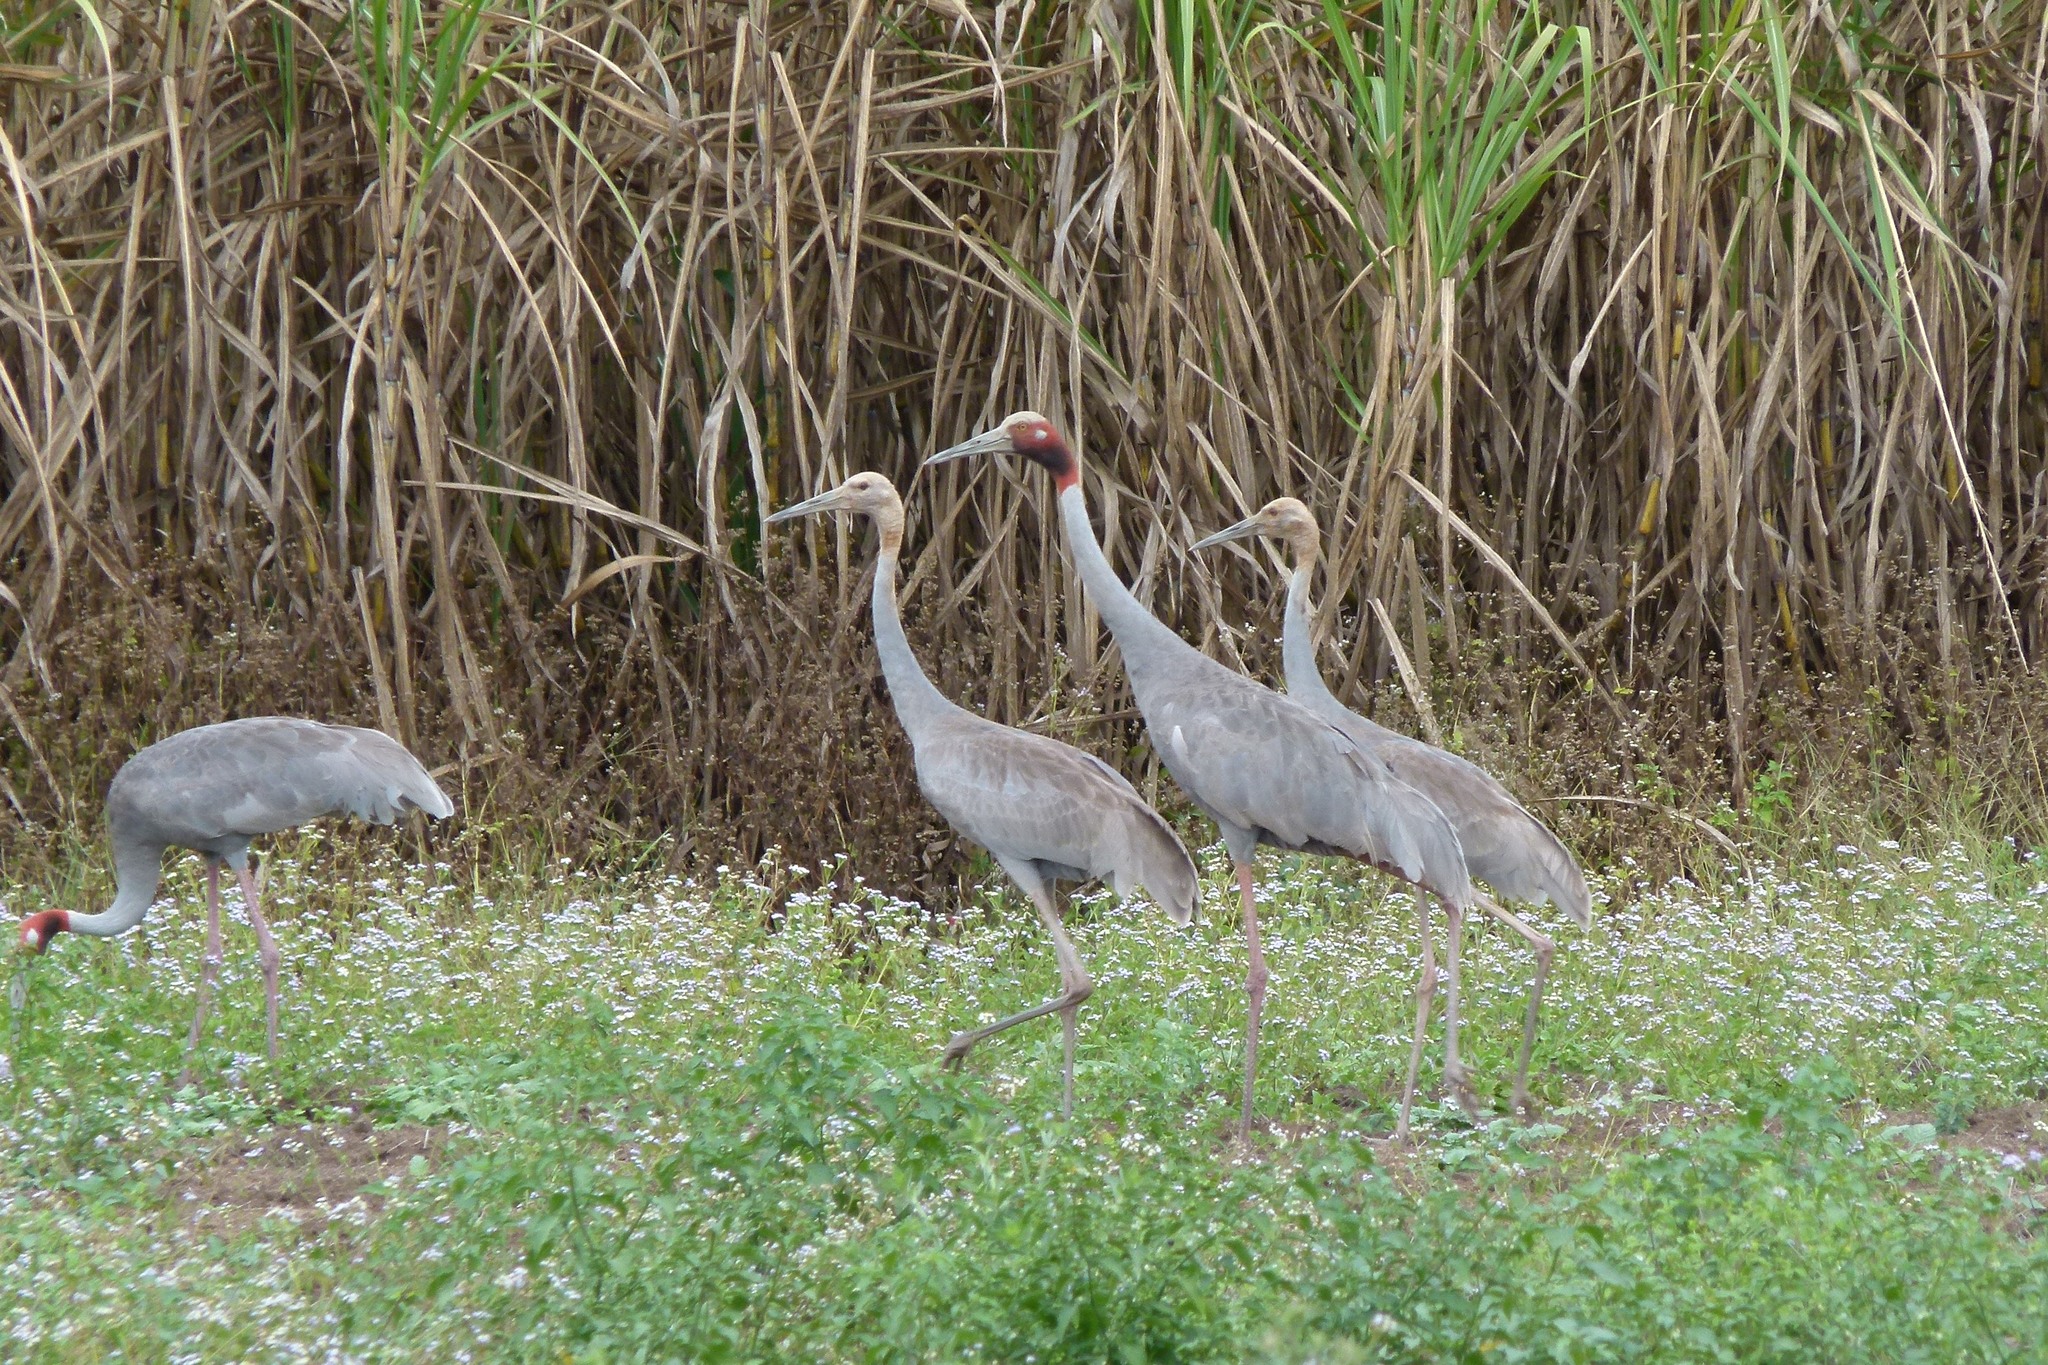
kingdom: Animalia
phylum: Chordata
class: Aves
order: Gruiformes
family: Gruidae
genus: Grus
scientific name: Grus antigone
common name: Sarus crane
